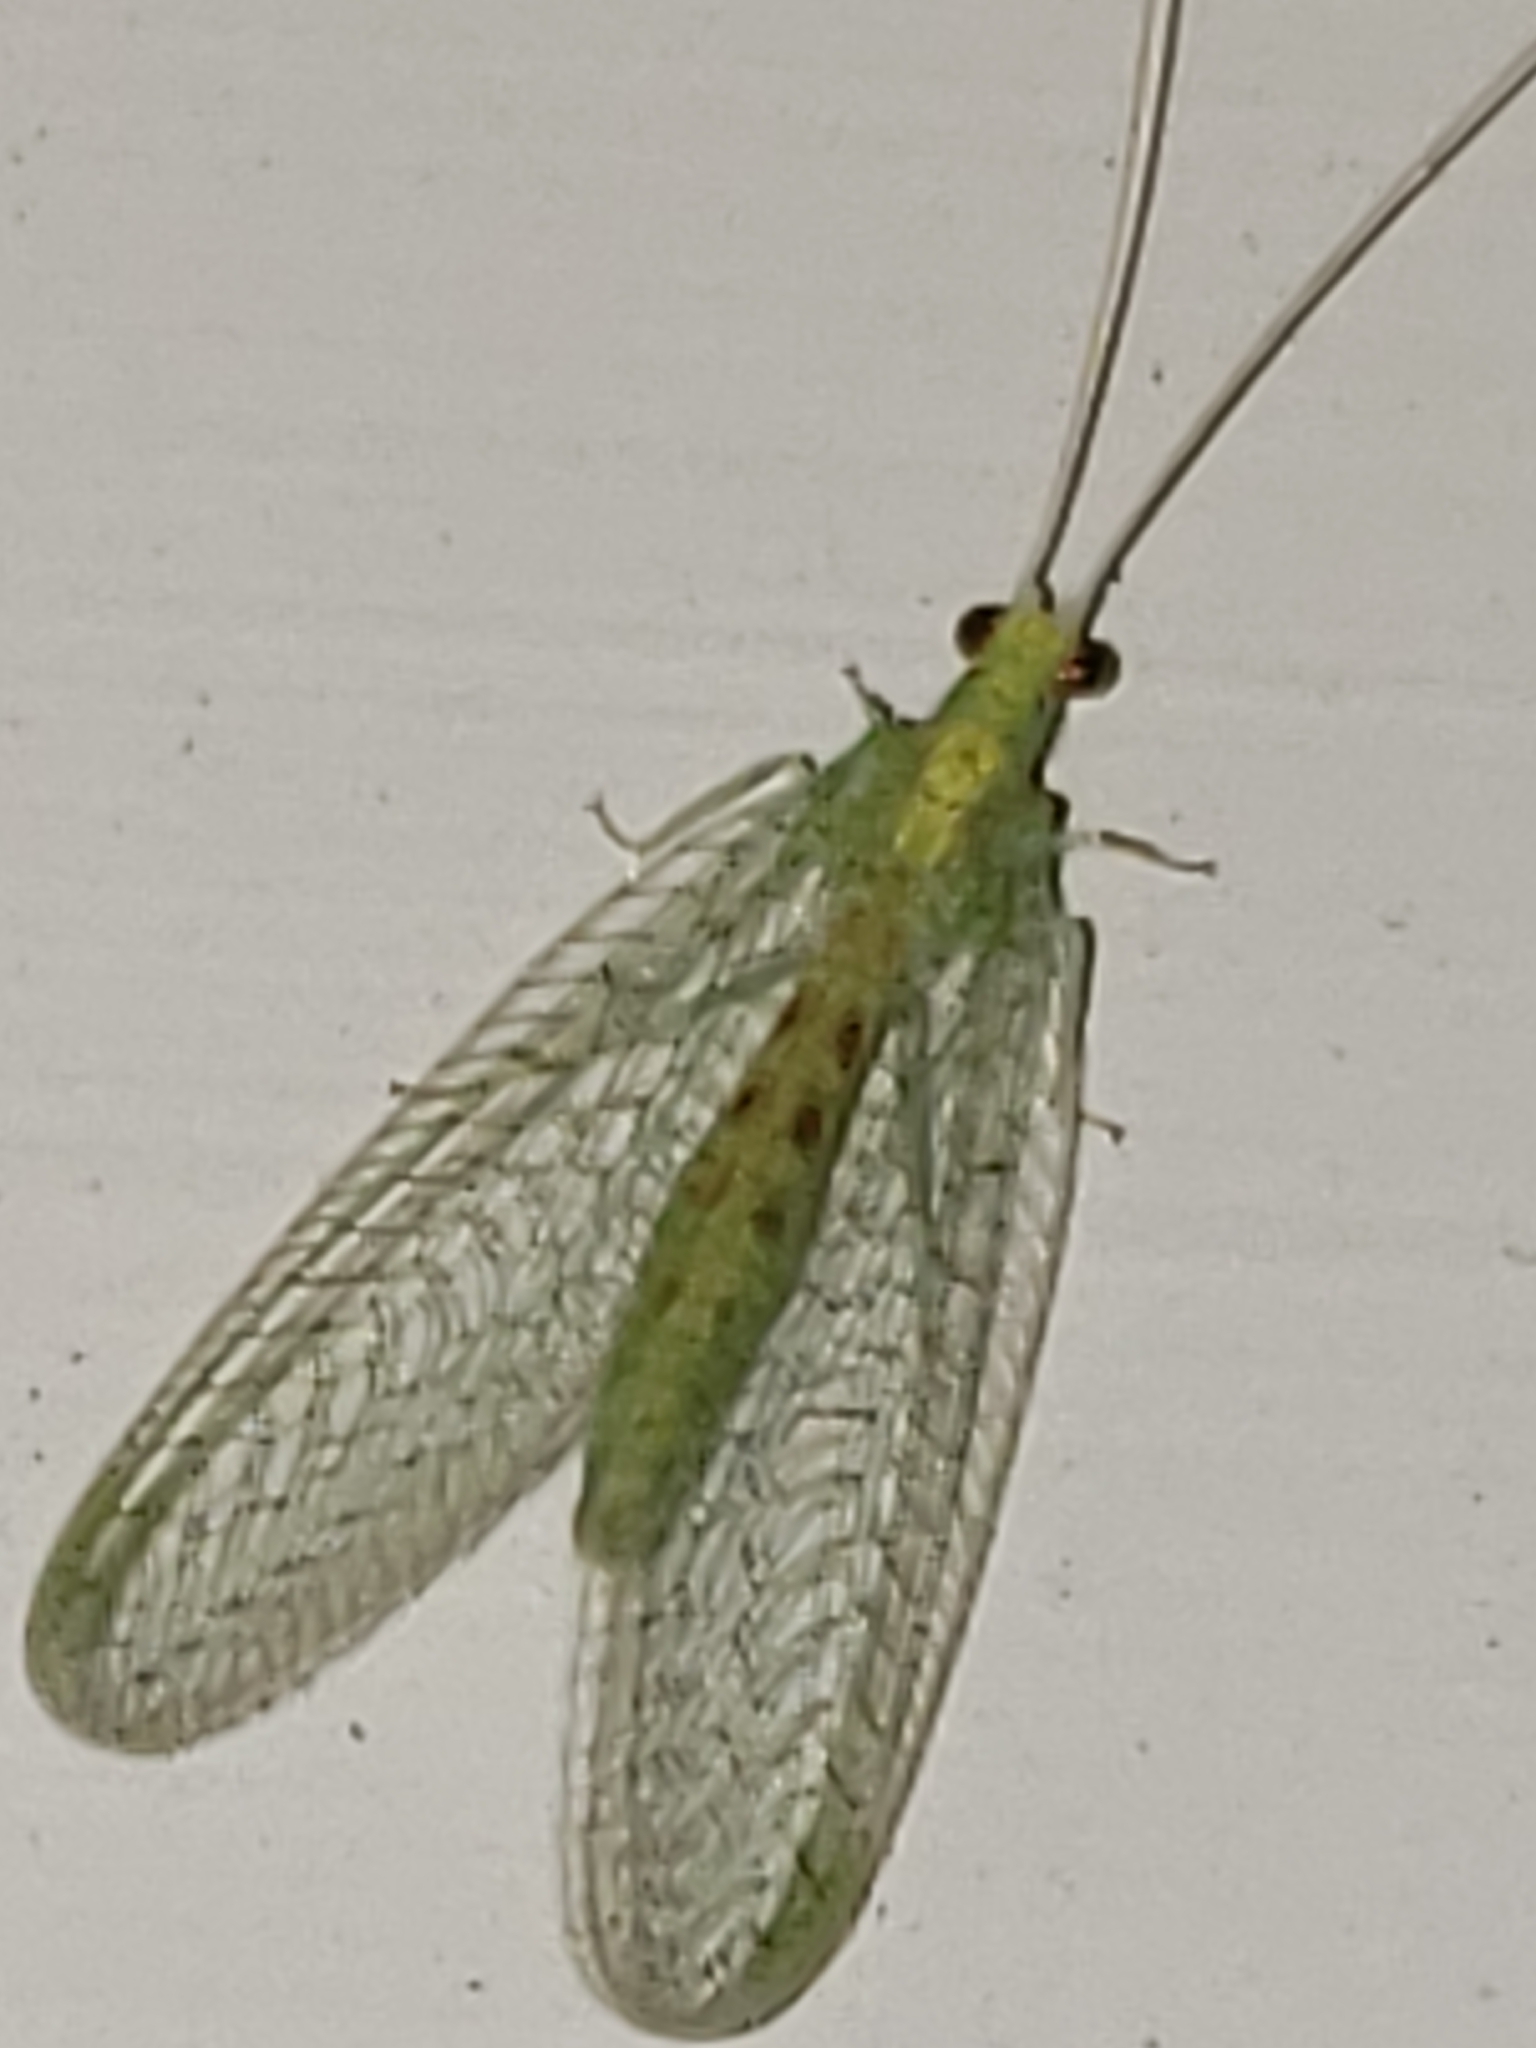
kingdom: Animalia
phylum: Arthropoda
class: Insecta
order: Neuroptera
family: Chrysopidae
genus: Chrysopa
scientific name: Chrysopa quadripunctata
